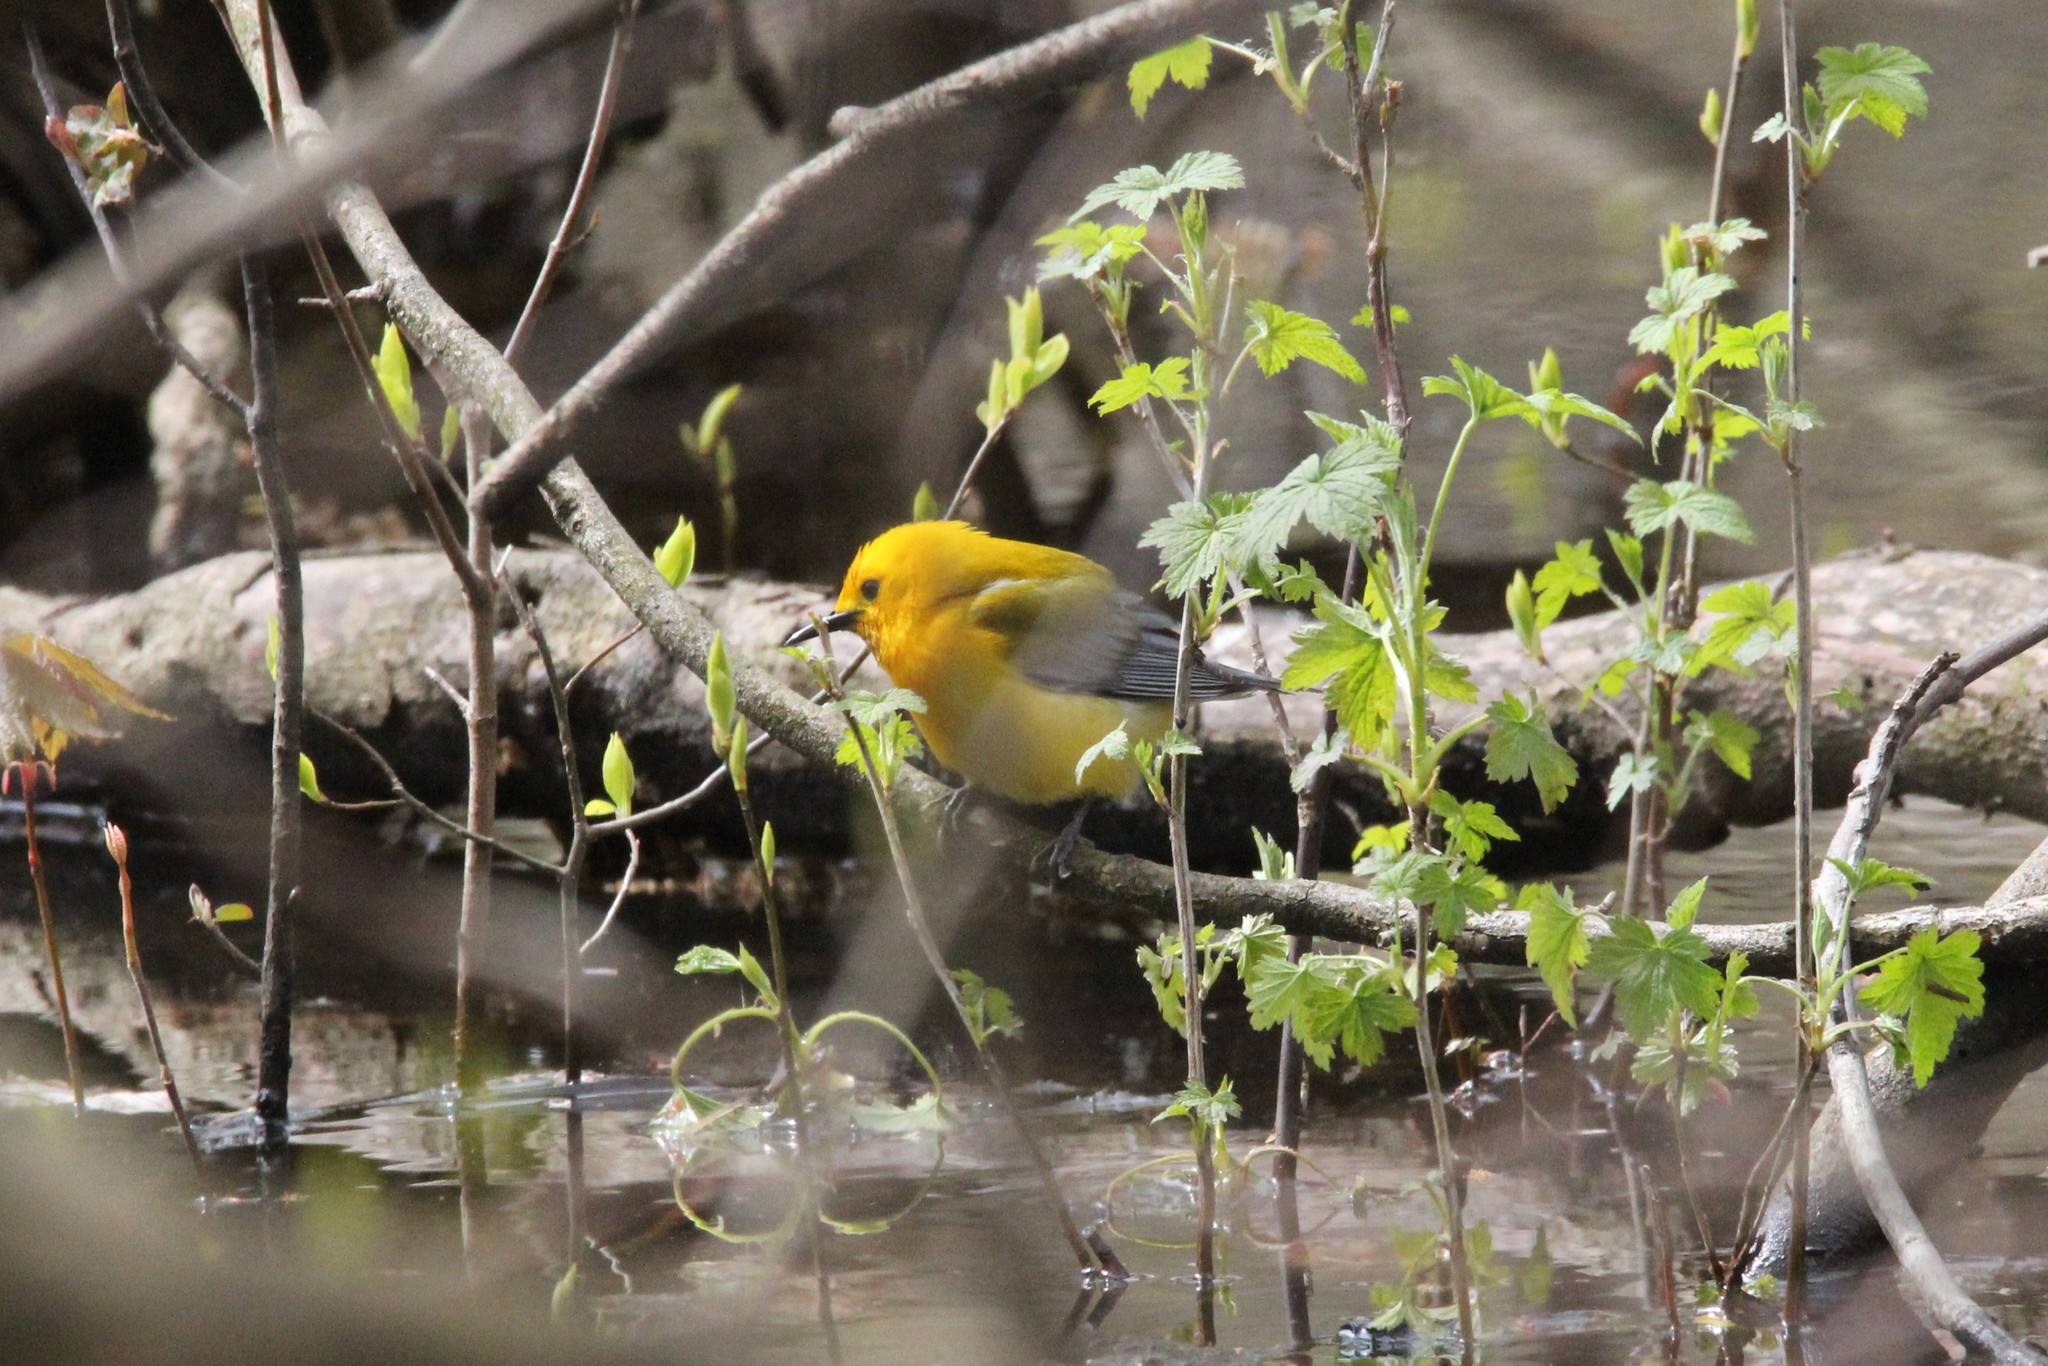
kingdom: Animalia
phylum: Chordata
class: Aves
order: Passeriformes
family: Parulidae
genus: Protonotaria
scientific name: Protonotaria citrea
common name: Prothonotary warbler
